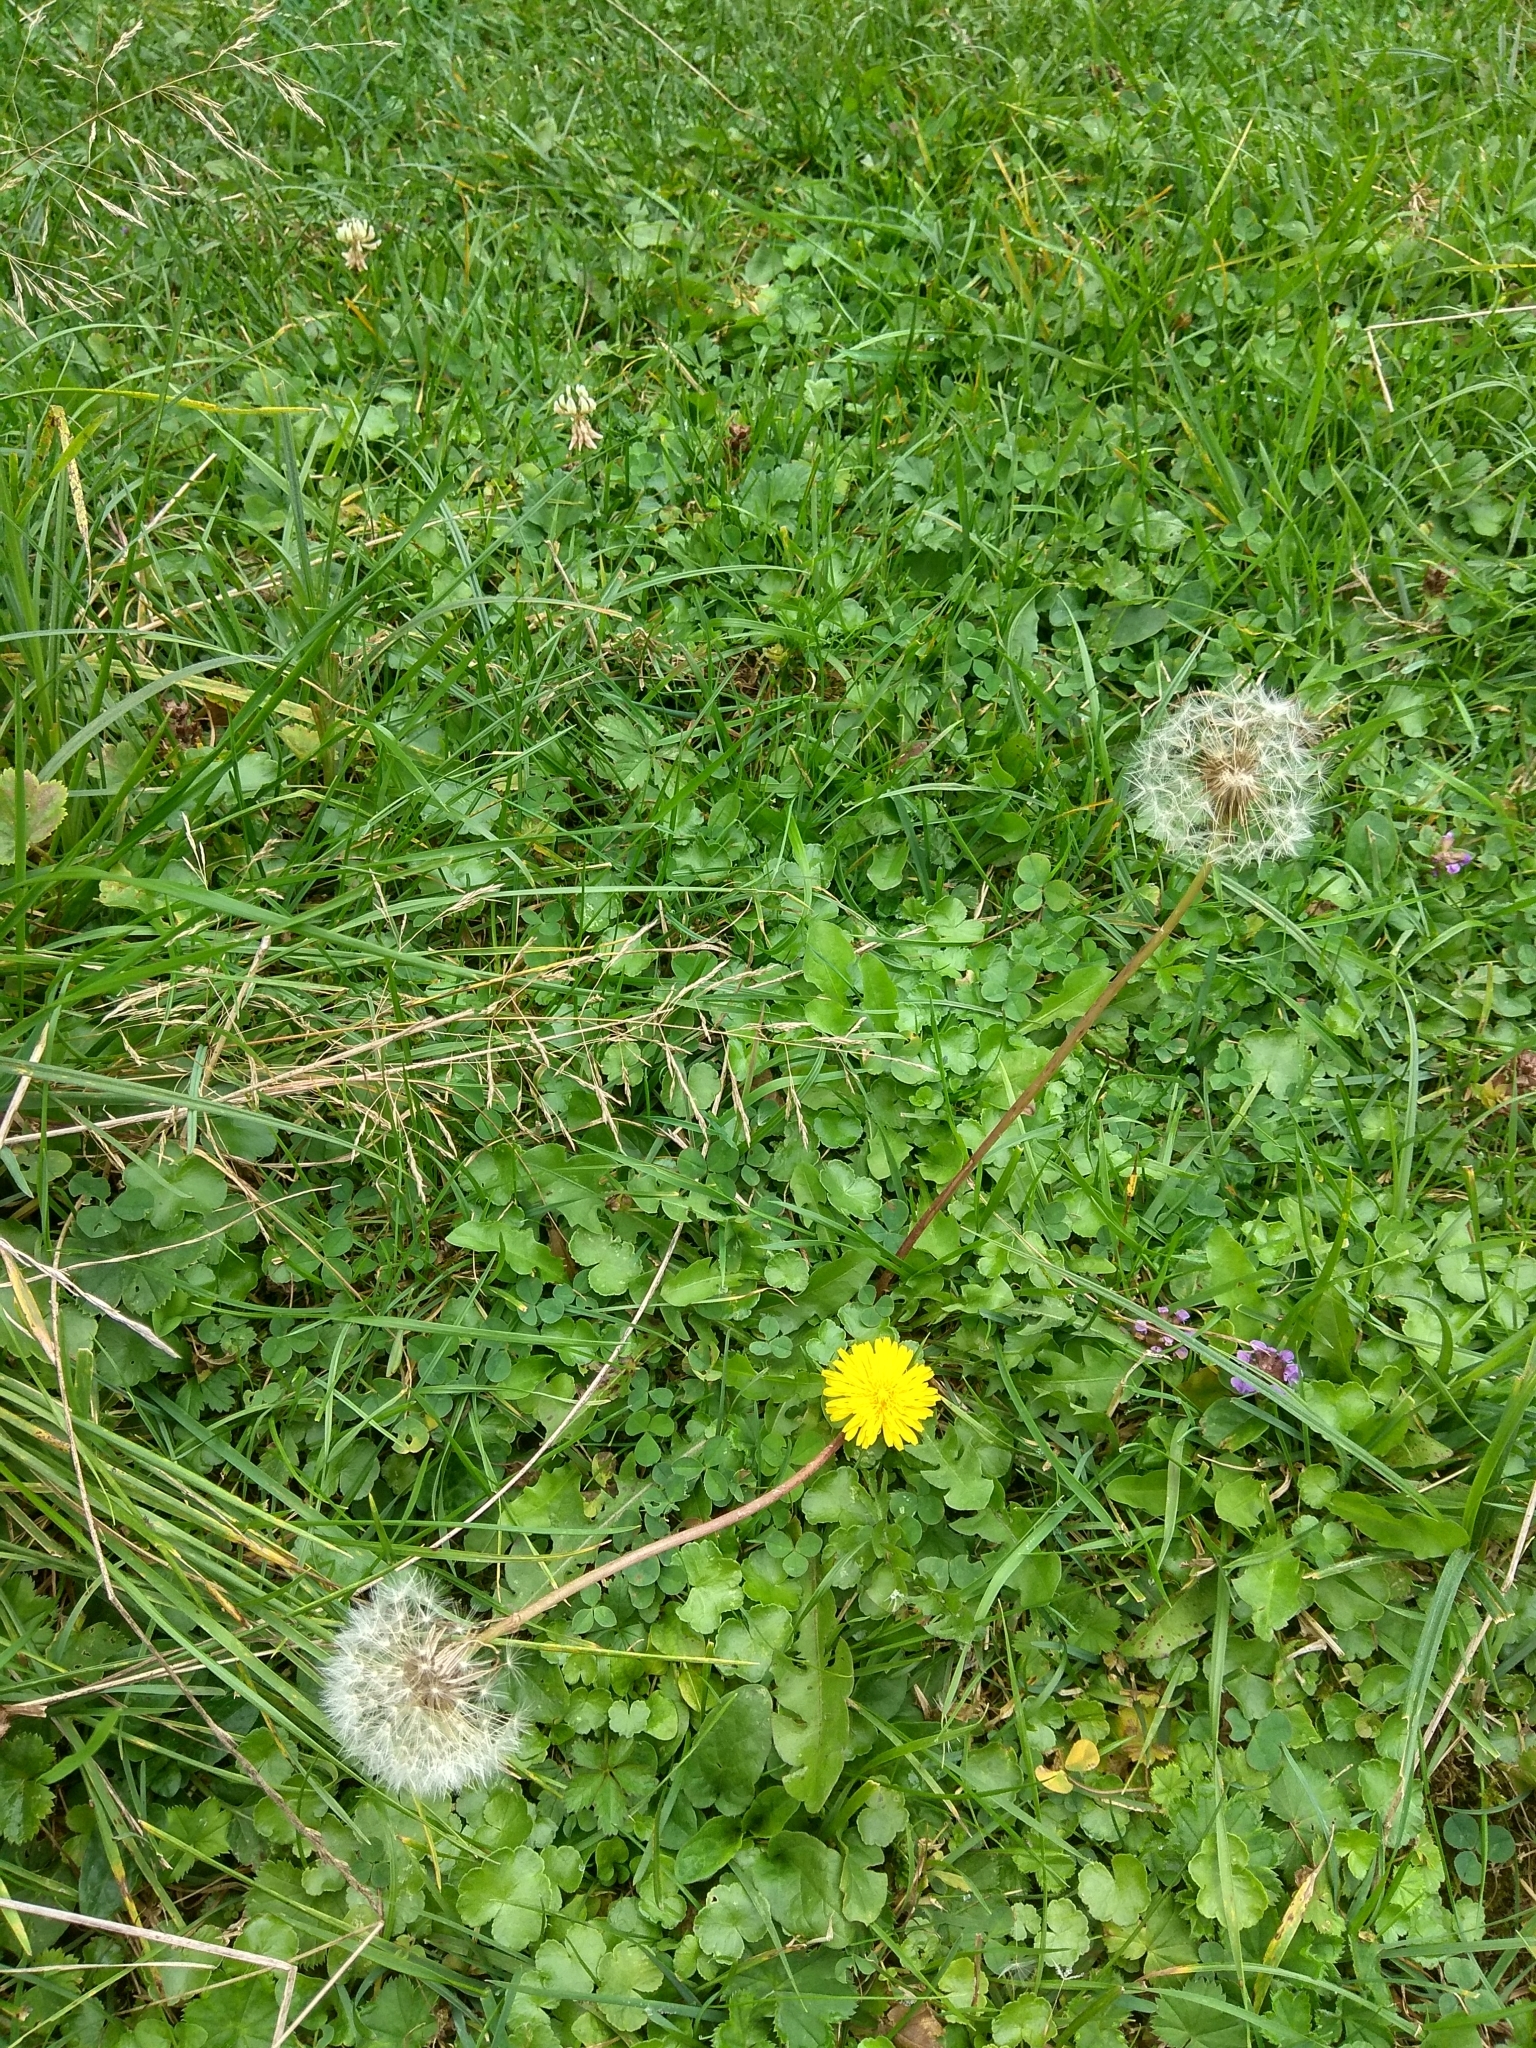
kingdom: Plantae
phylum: Tracheophyta
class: Magnoliopsida
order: Asterales
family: Asteraceae
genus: Taraxacum
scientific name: Taraxacum officinale
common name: Common dandelion
